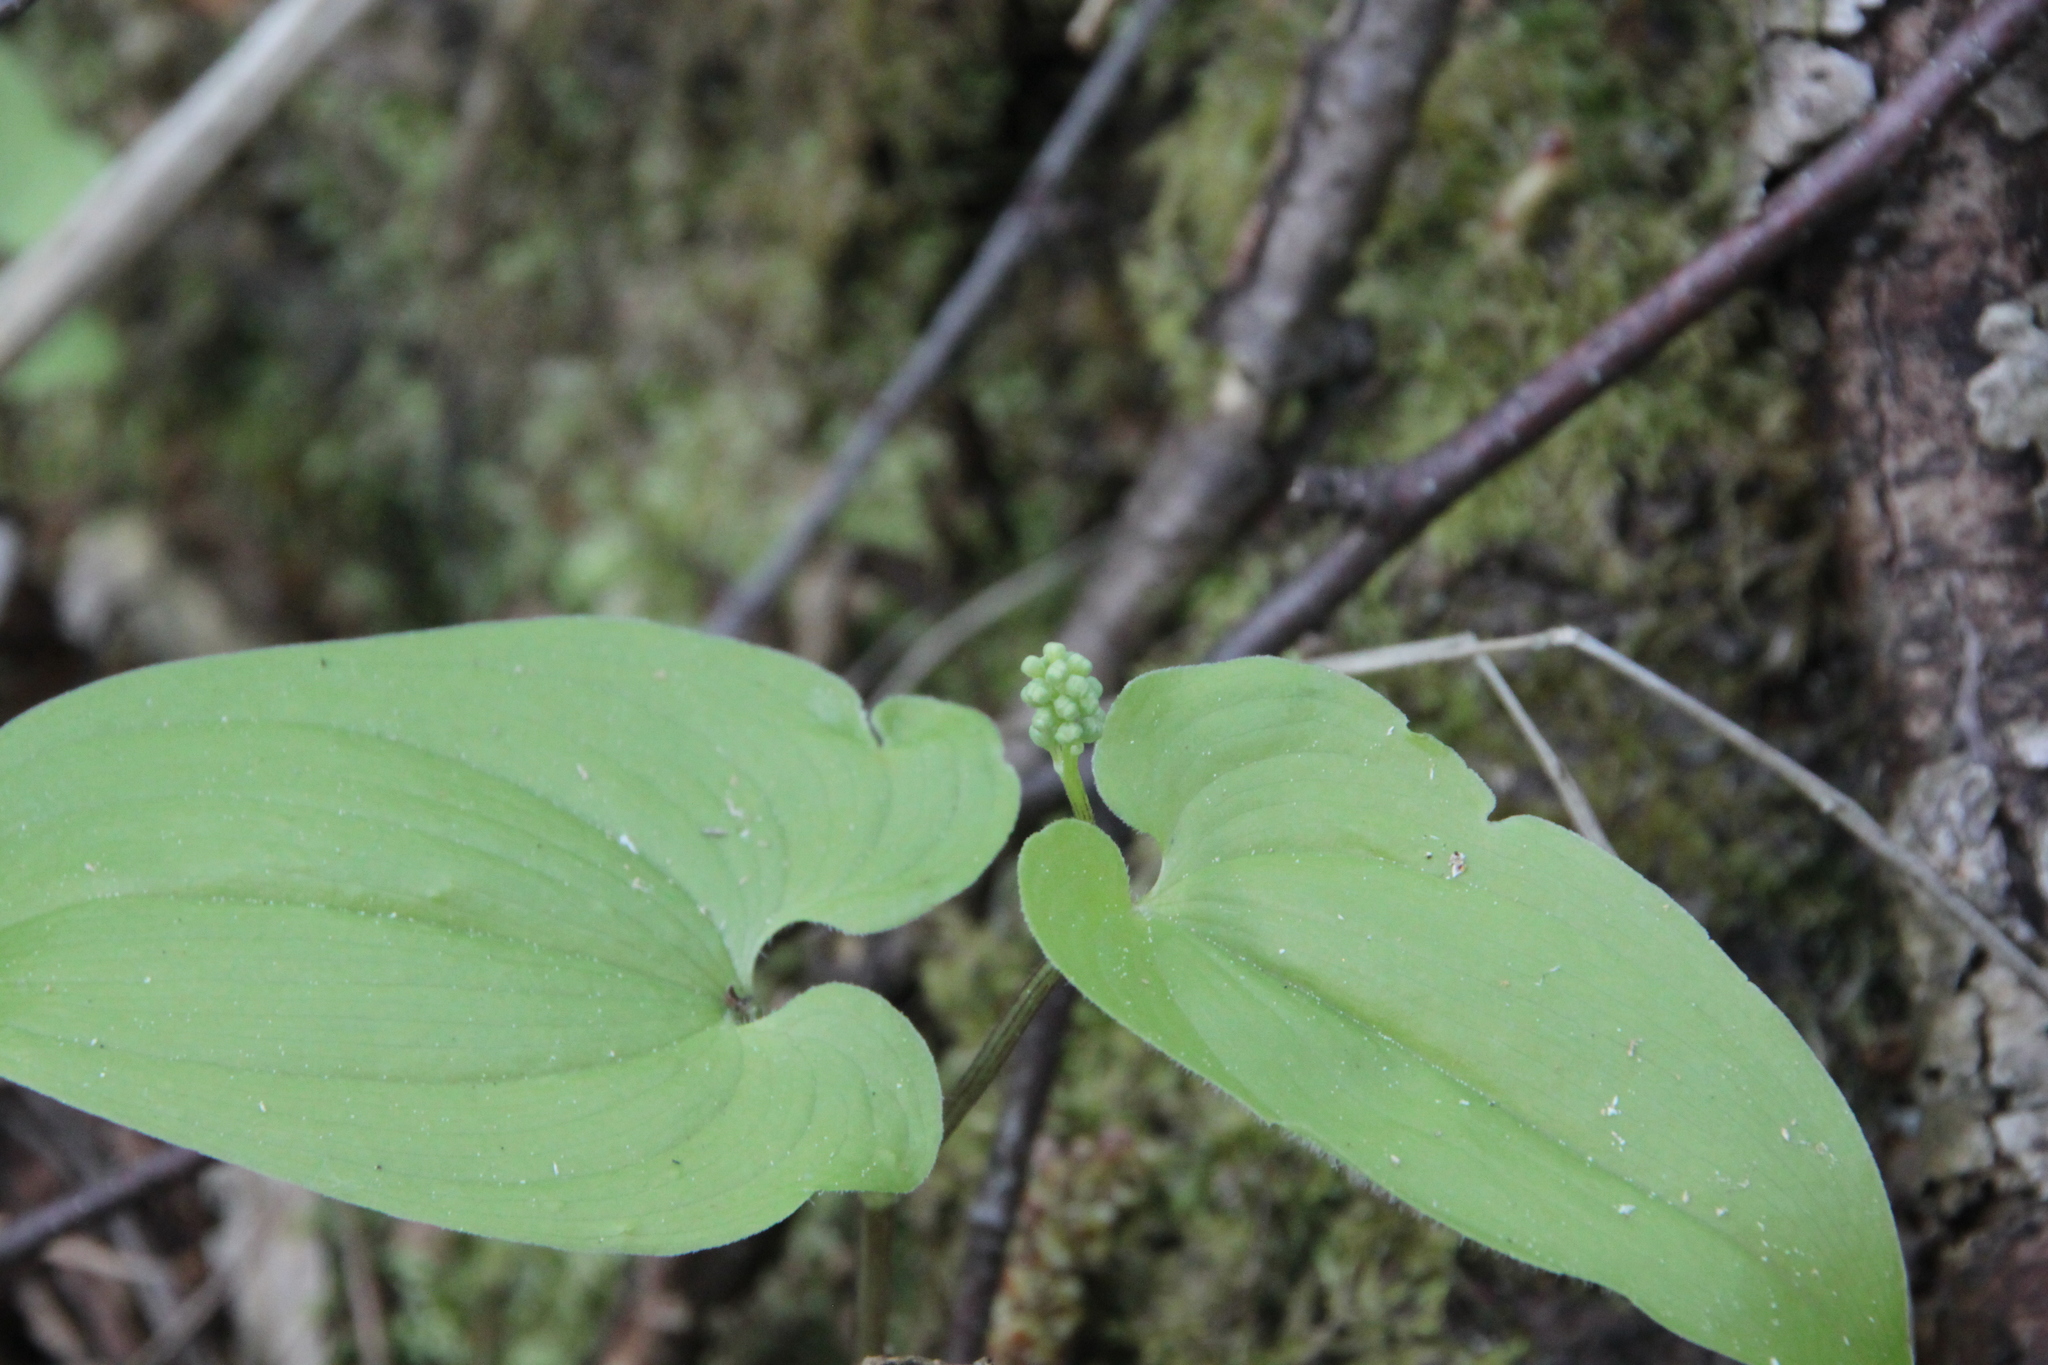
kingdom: Plantae
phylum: Tracheophyta
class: Liliopsida
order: Asparagales
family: Asparagaceae
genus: Maianthemum
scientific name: Maianthemum bifolium
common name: May lily
